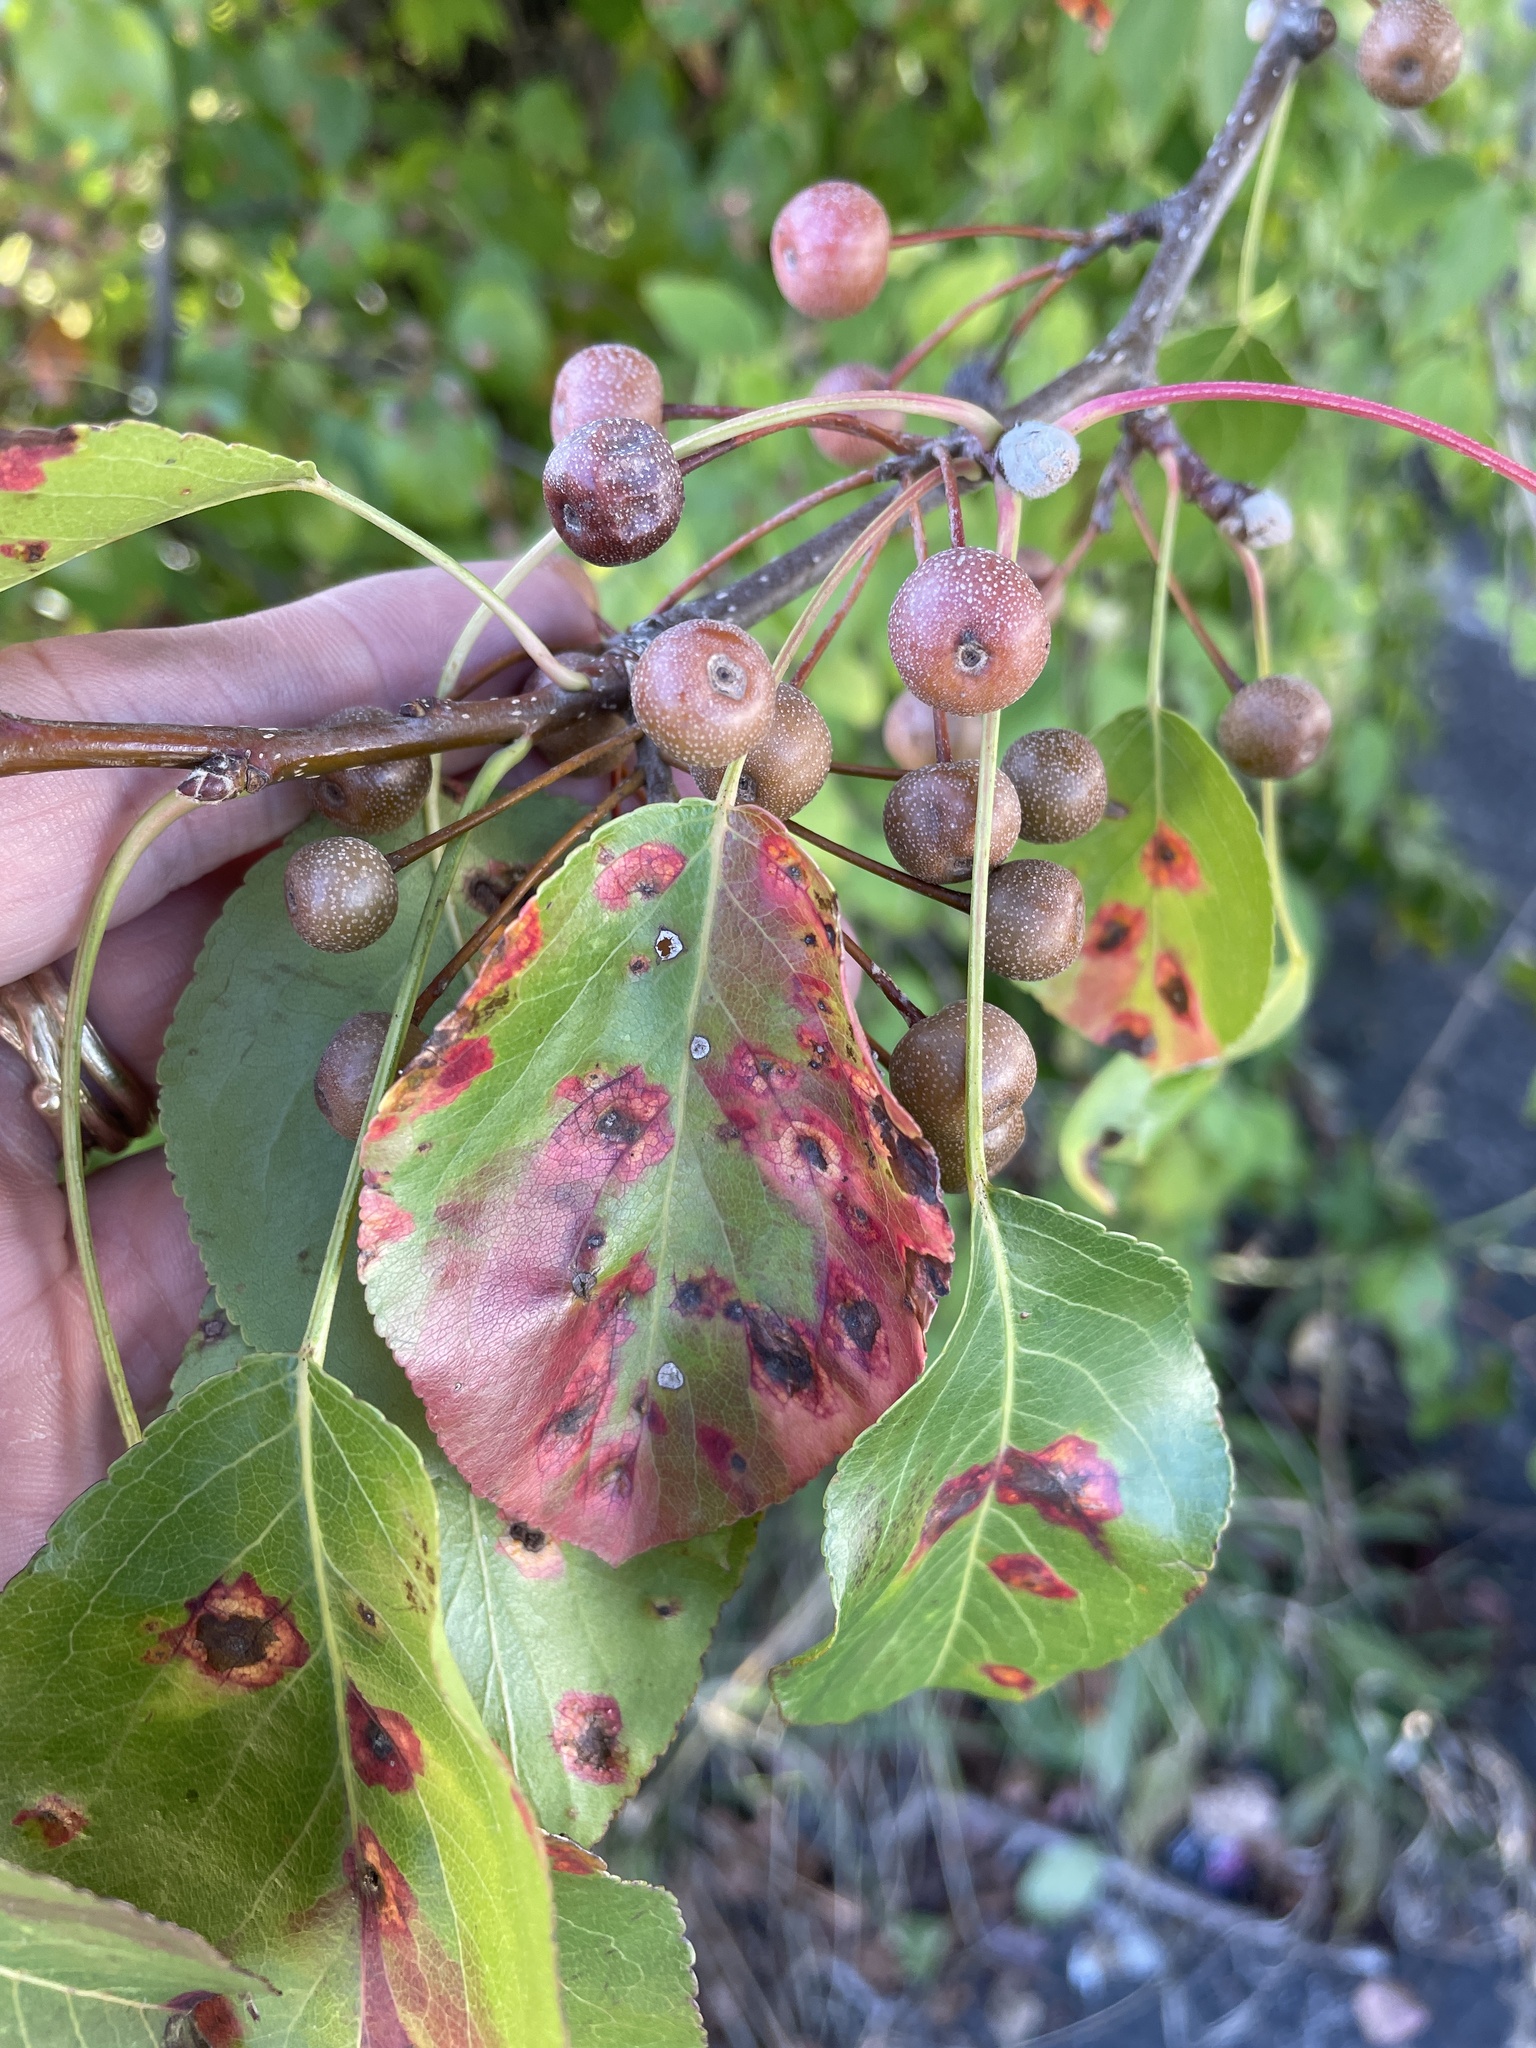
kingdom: Plantae
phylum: Tracheophyta
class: Magnoliopsida
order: Rosales
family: Rosaceae
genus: Pyrus
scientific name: Pyrus calleryana
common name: Callery pear
